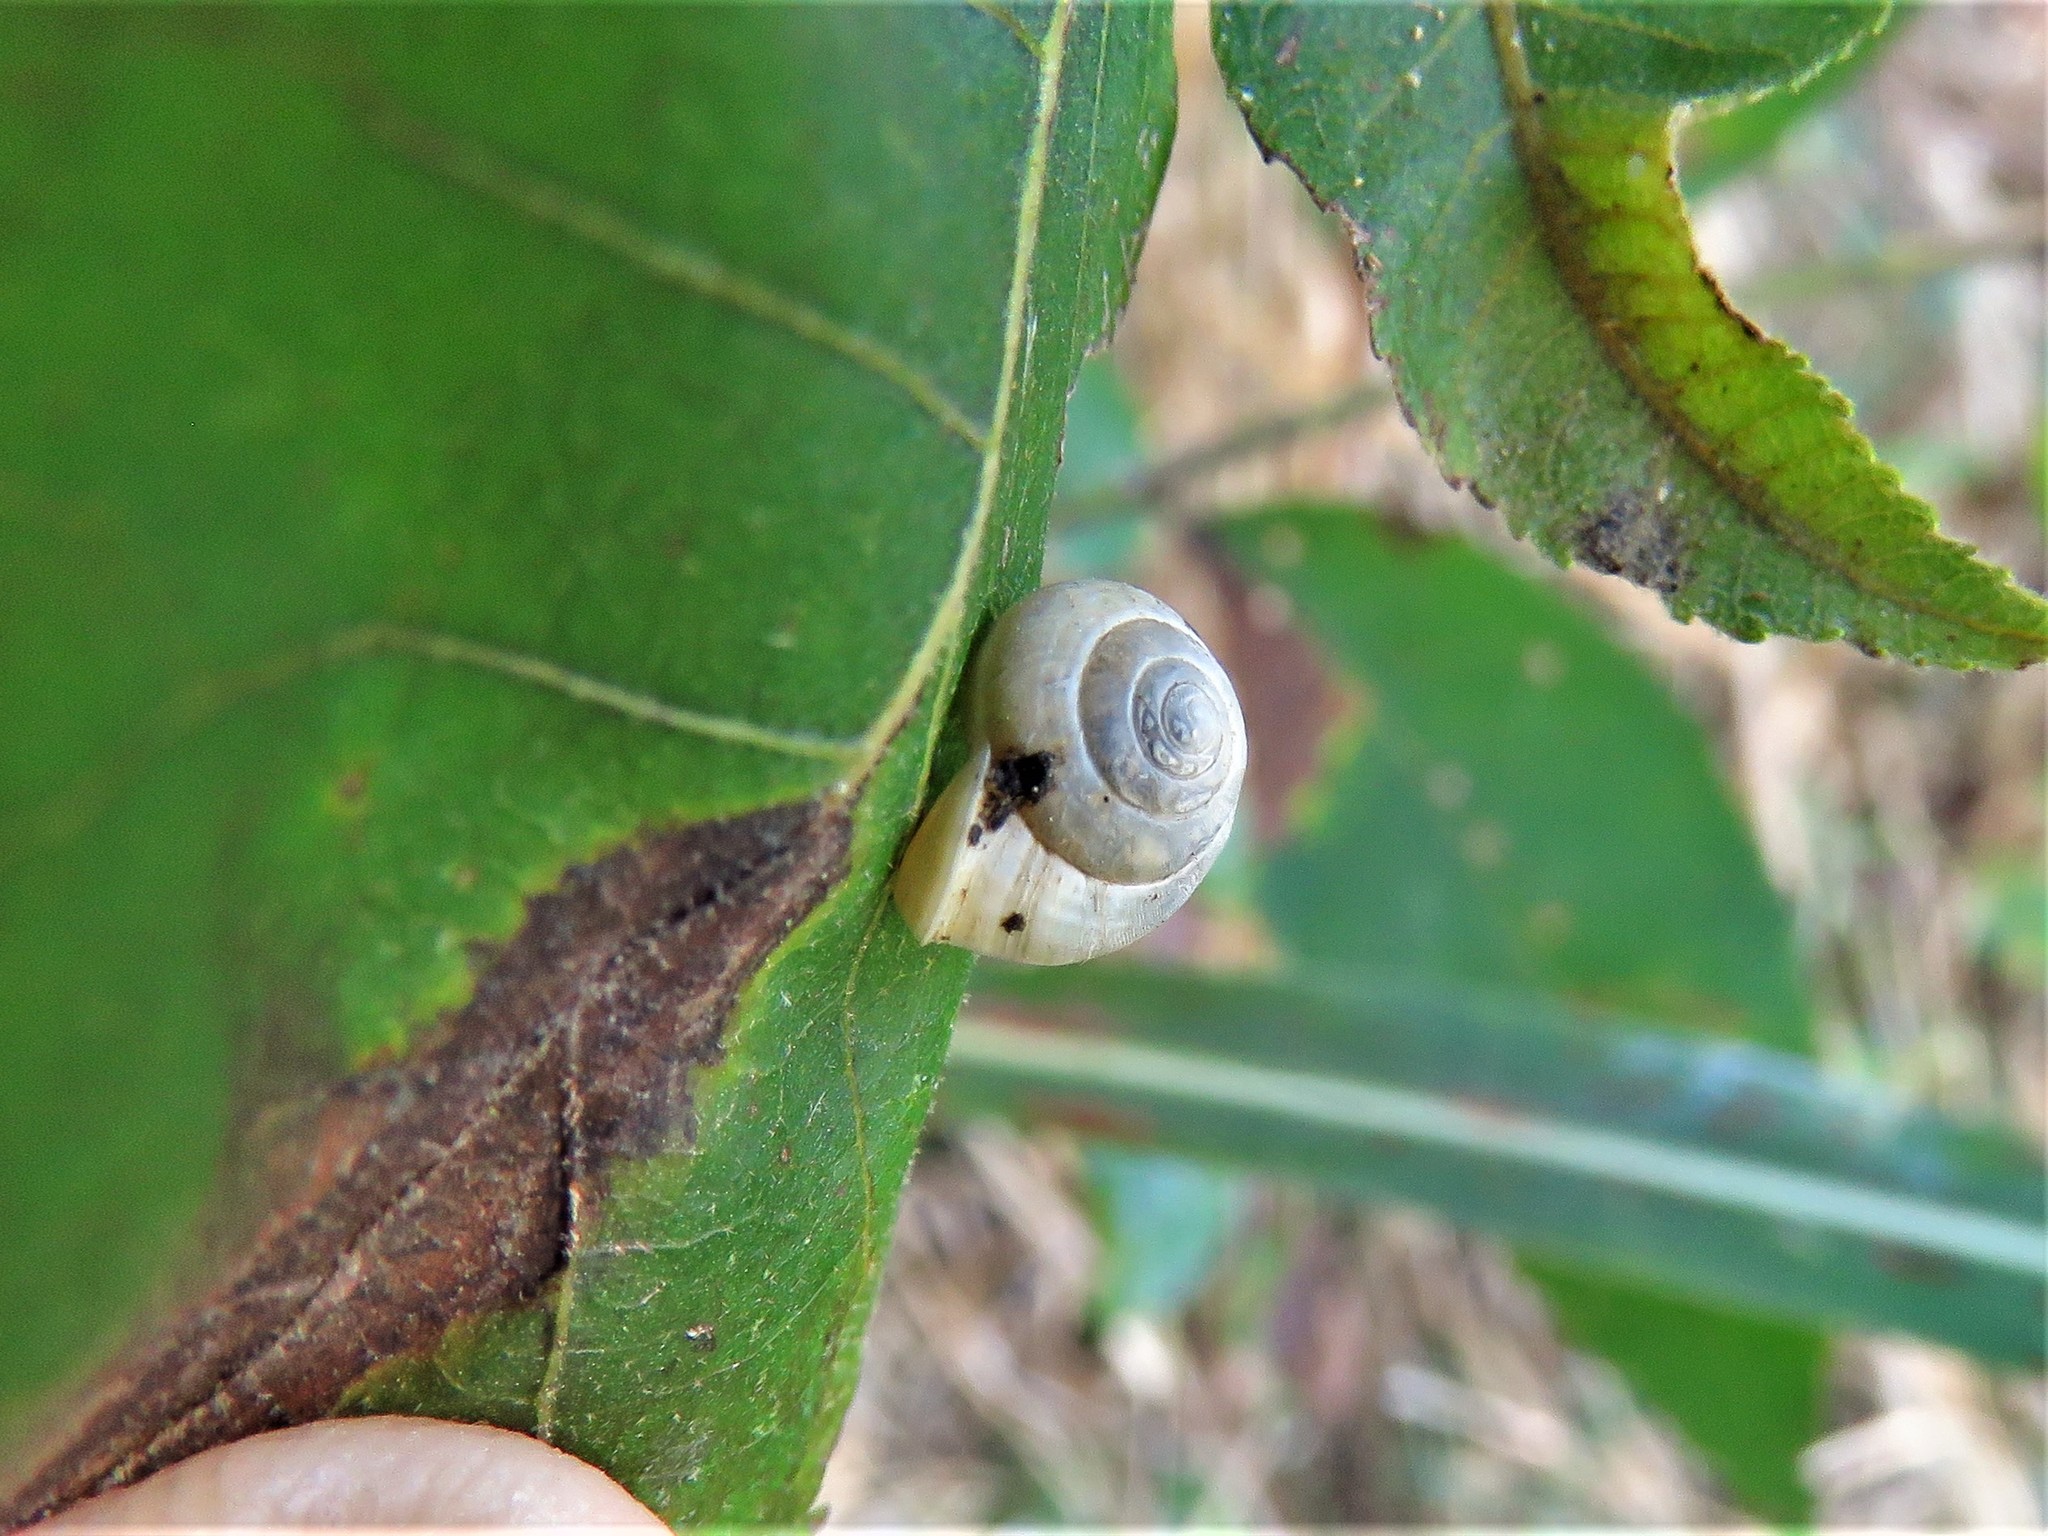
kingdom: Animalia
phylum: Mollusca
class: Gastropoda
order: Cycloneritida
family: Helicinidae
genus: Helicina
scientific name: Helicina orbiculata
